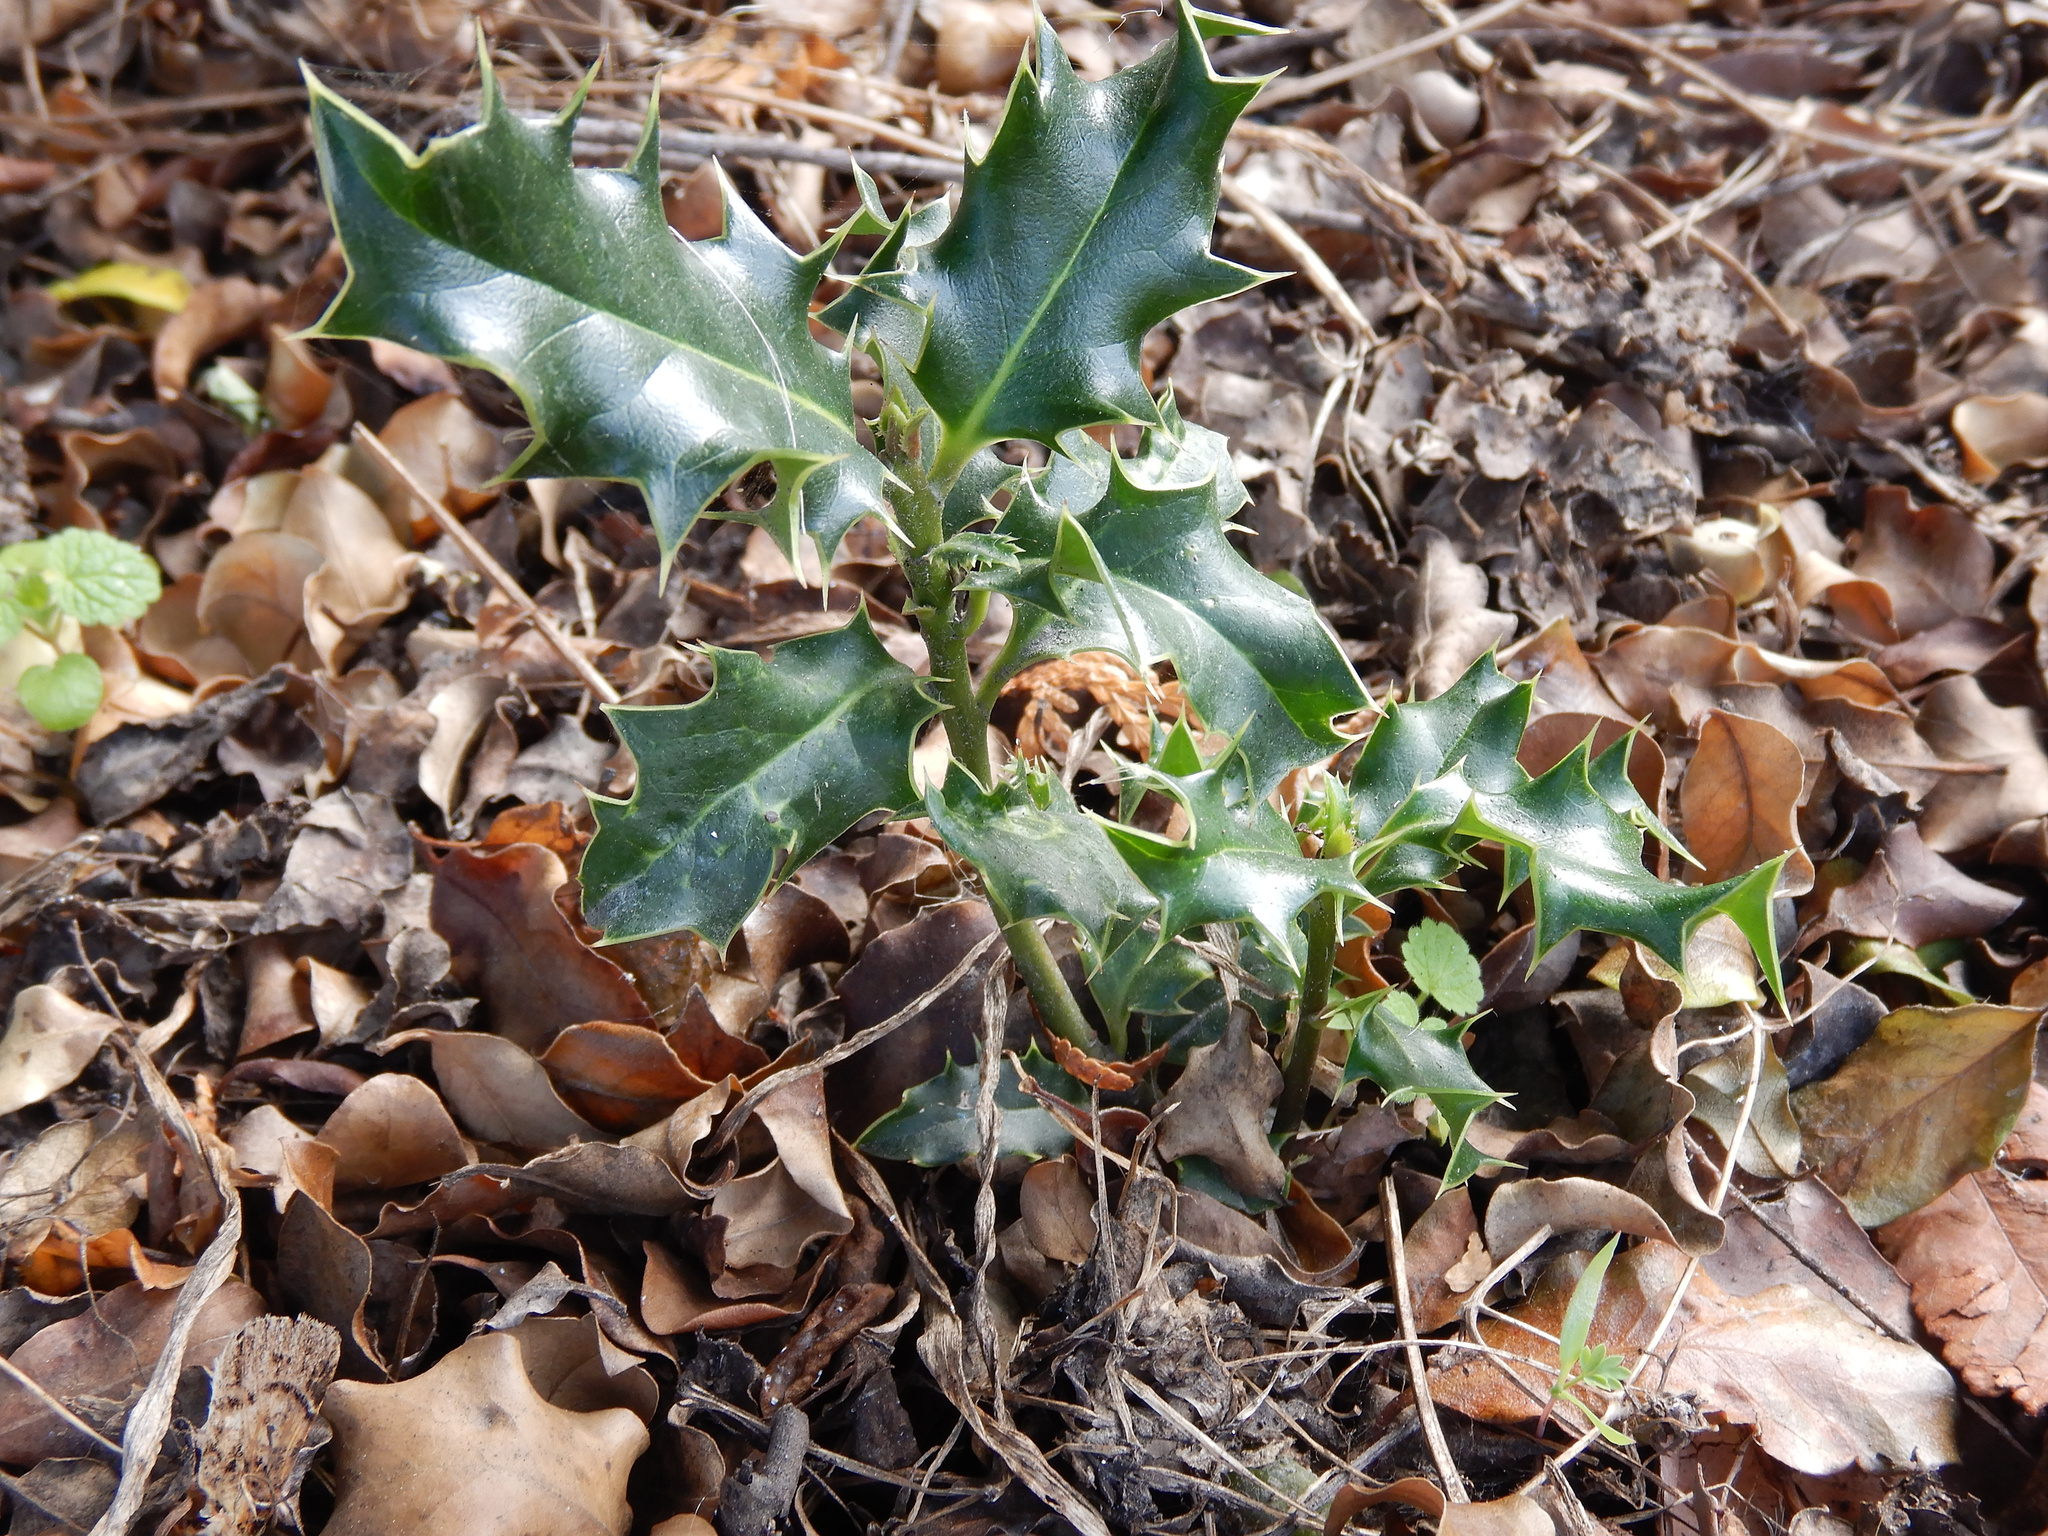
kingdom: Plantae
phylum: Tracheophyta
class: Magnoliopsida
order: Aquifoliales
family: Aquifoliaceae
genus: Ilex
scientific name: Ilex aquifolium
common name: English holly
